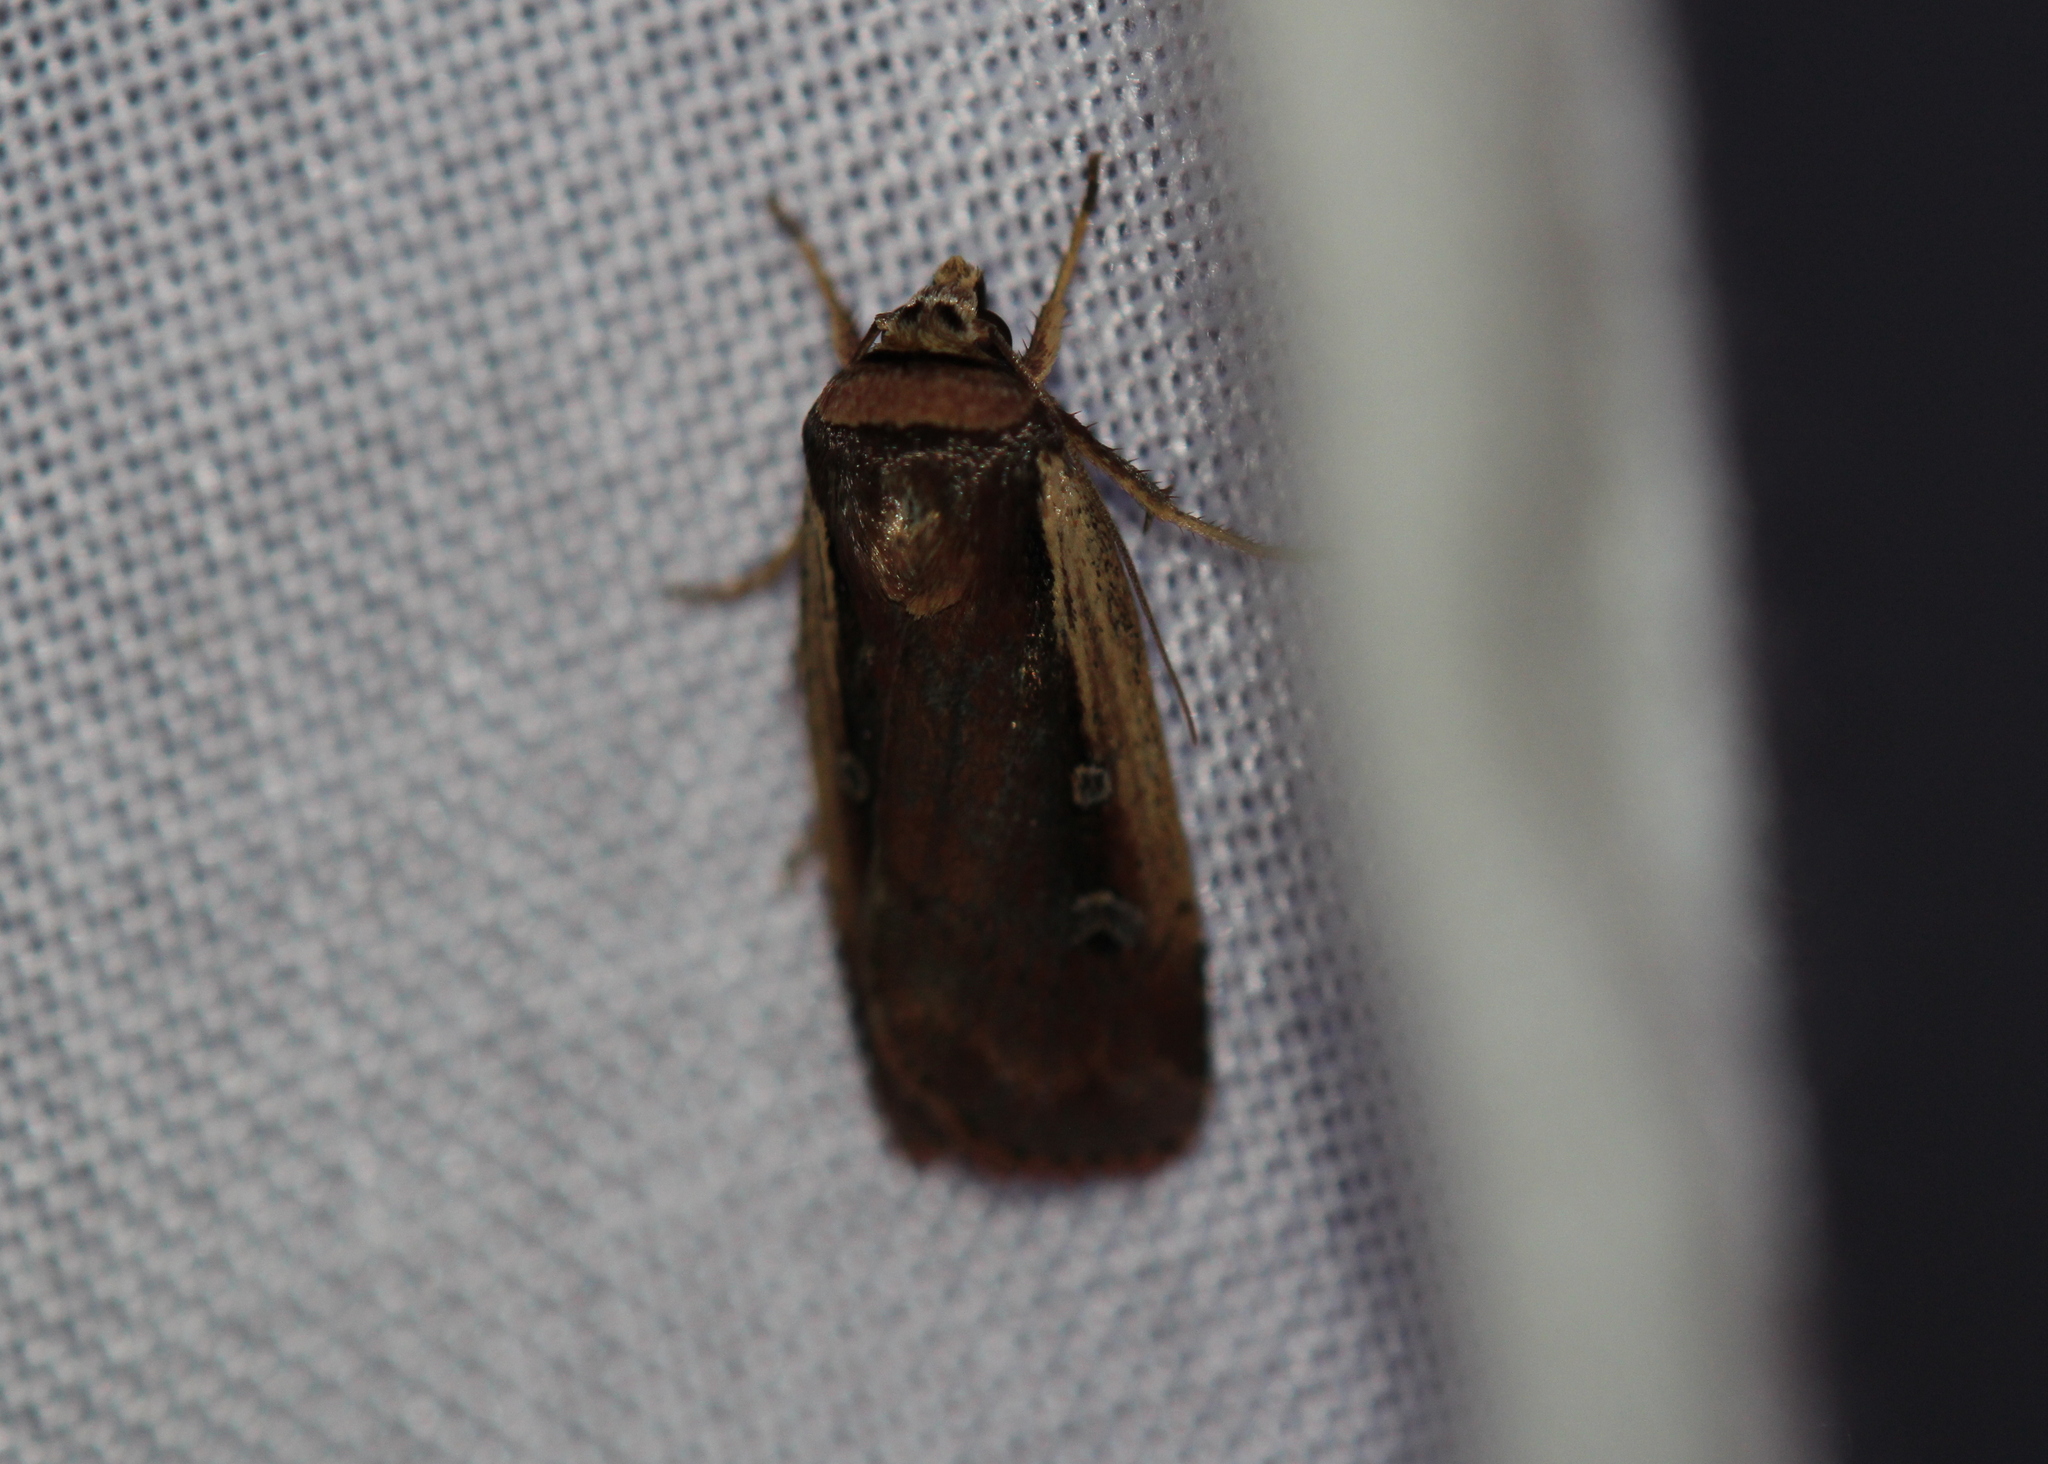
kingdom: Animalia
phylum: Arthropoda
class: Insecta
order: Lepidoptera
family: Noctuidae
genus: Ochropleura
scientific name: Ochropleura implecta
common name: Flame-shouldered dart
